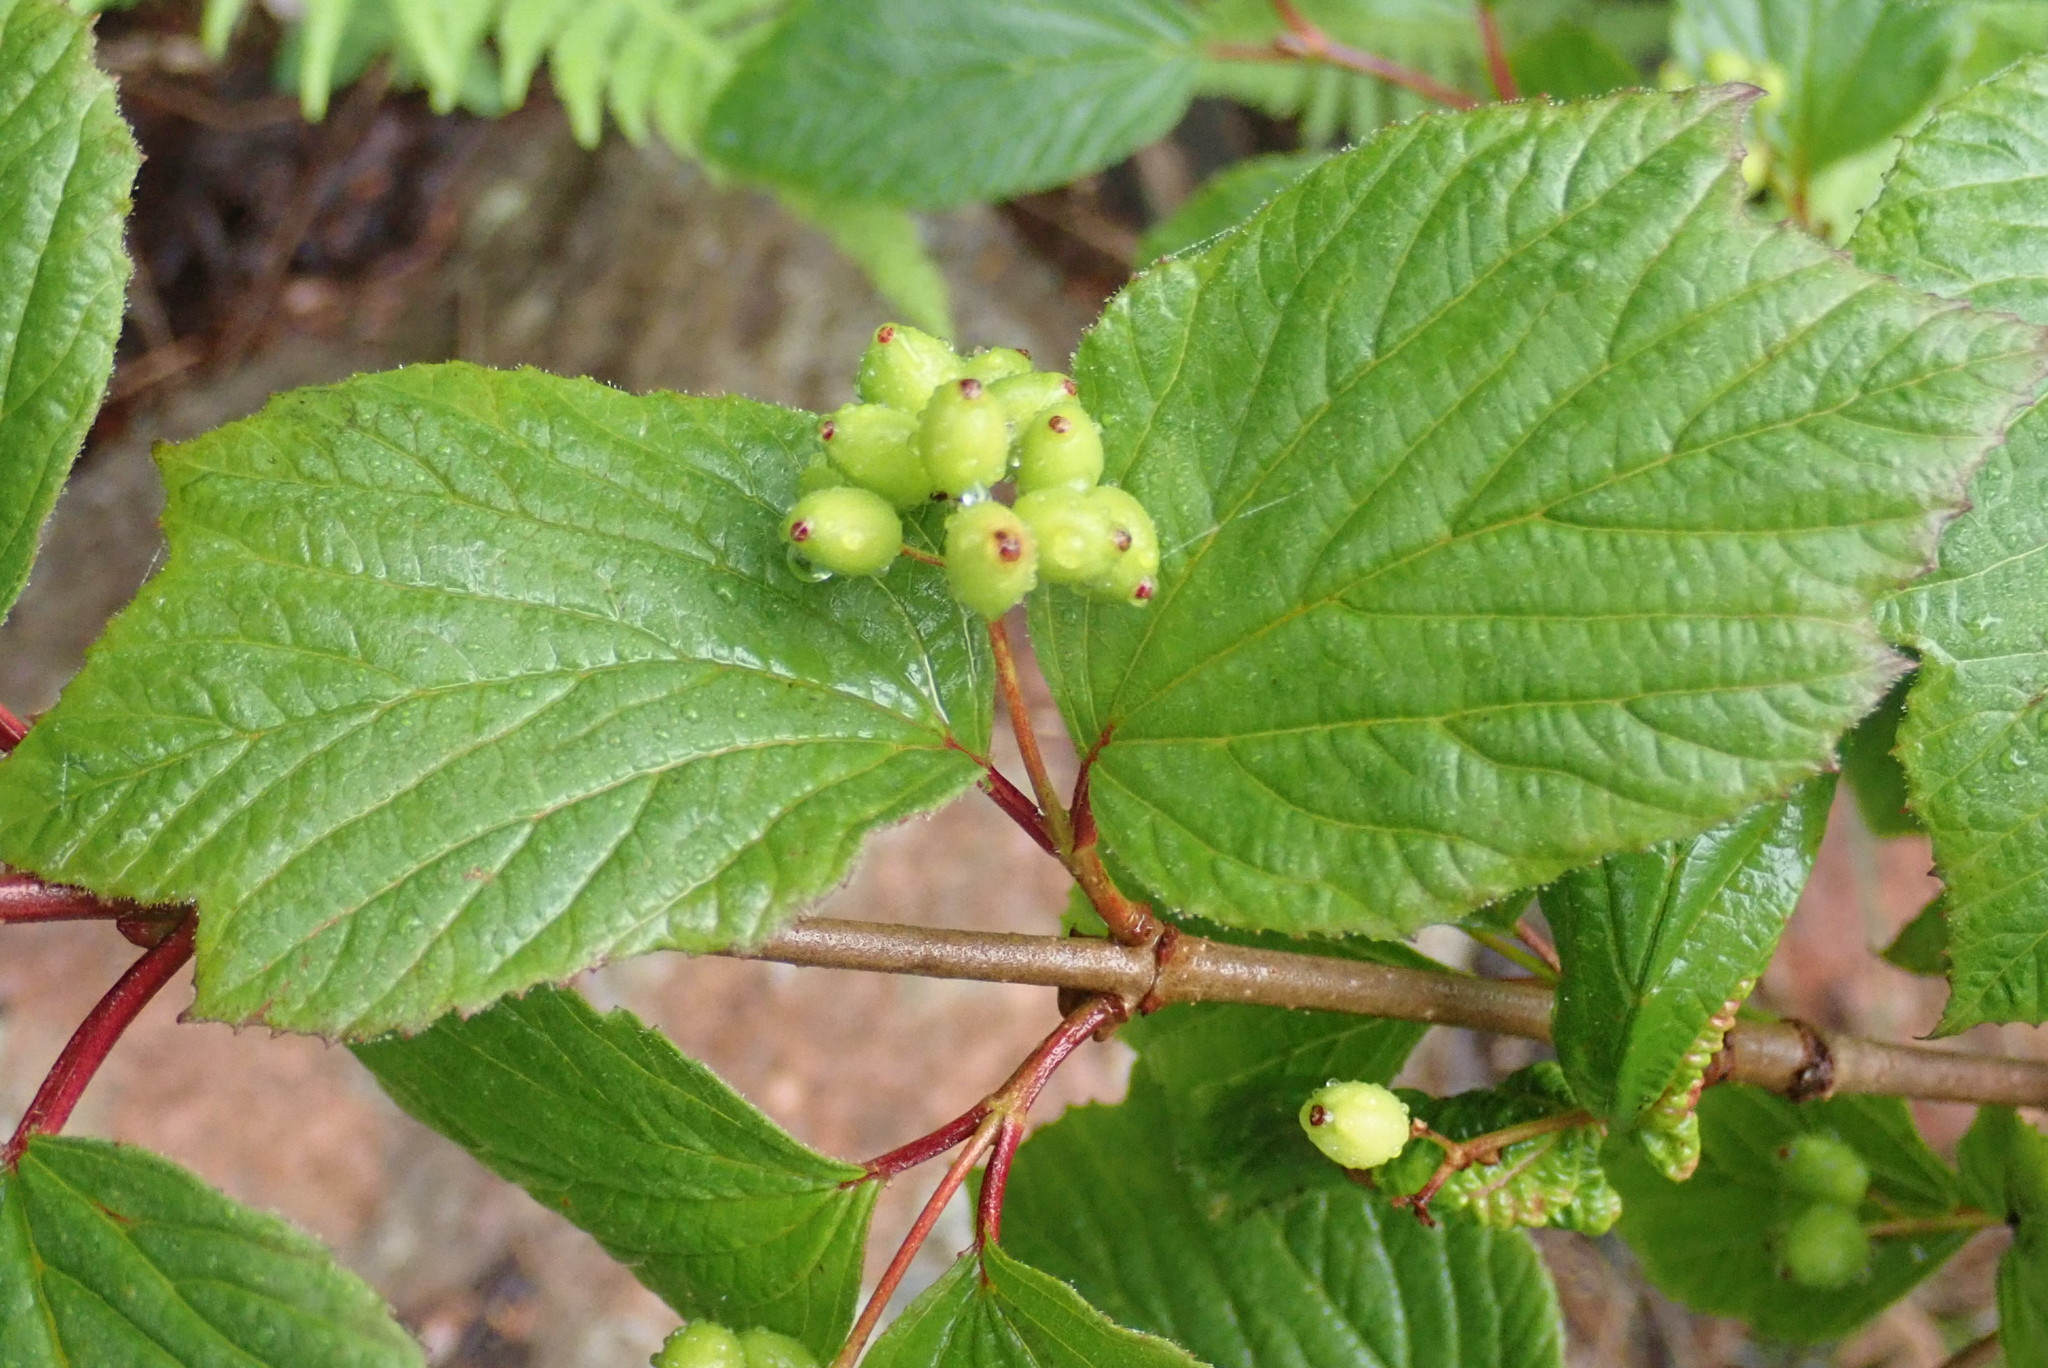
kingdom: Plantae
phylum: Tracheophyta
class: Magnoliopsida
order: Dipsacales
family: Viburnaceae
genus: Viburnum
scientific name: Viburnum edule
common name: Mooseberry
